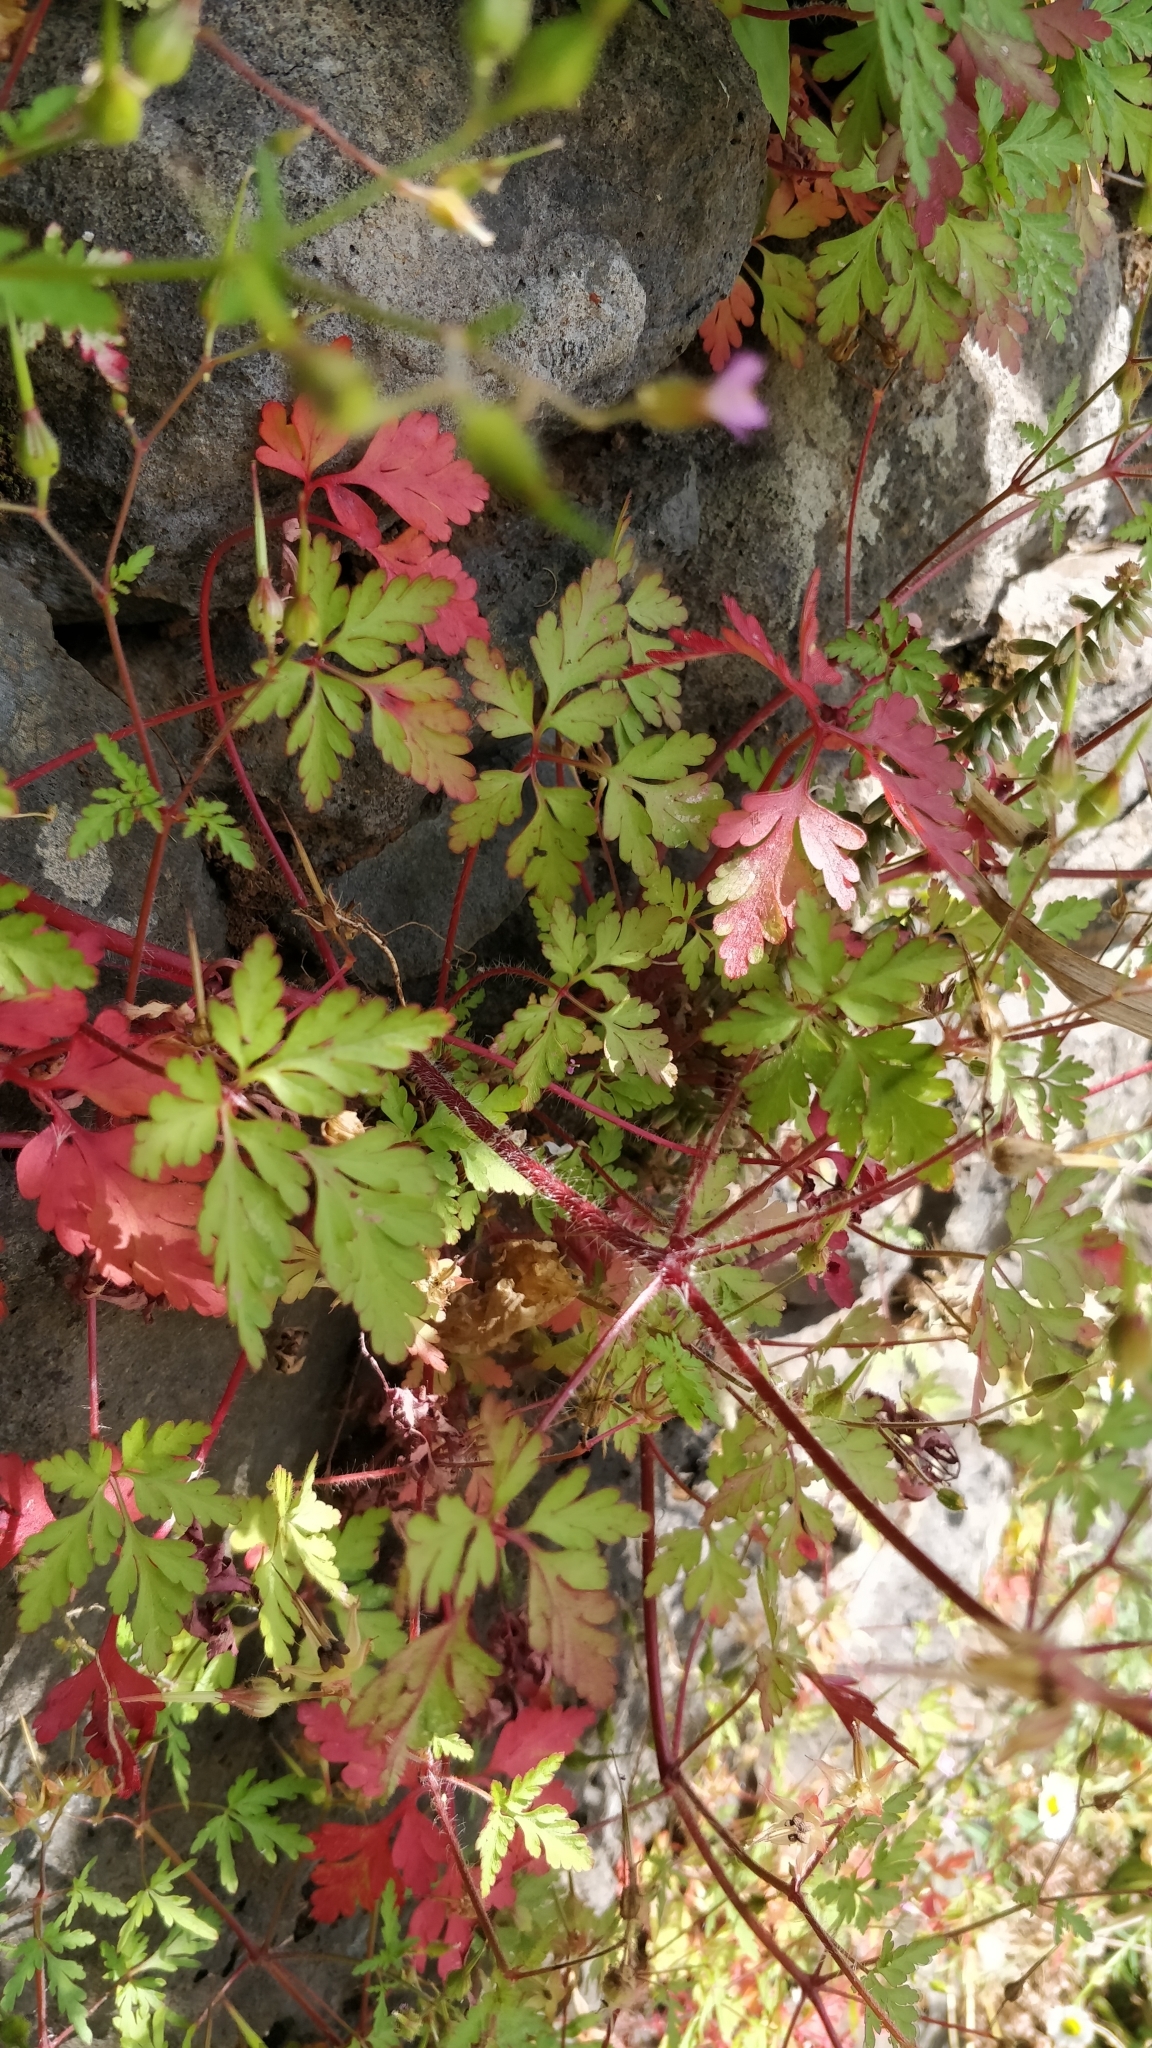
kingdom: Plantae
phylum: Tracheophyta
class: Magnoliopsida
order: Geraniales
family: Geraniaceae
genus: Geranium
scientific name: Geranium purpureum
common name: Little-robin
